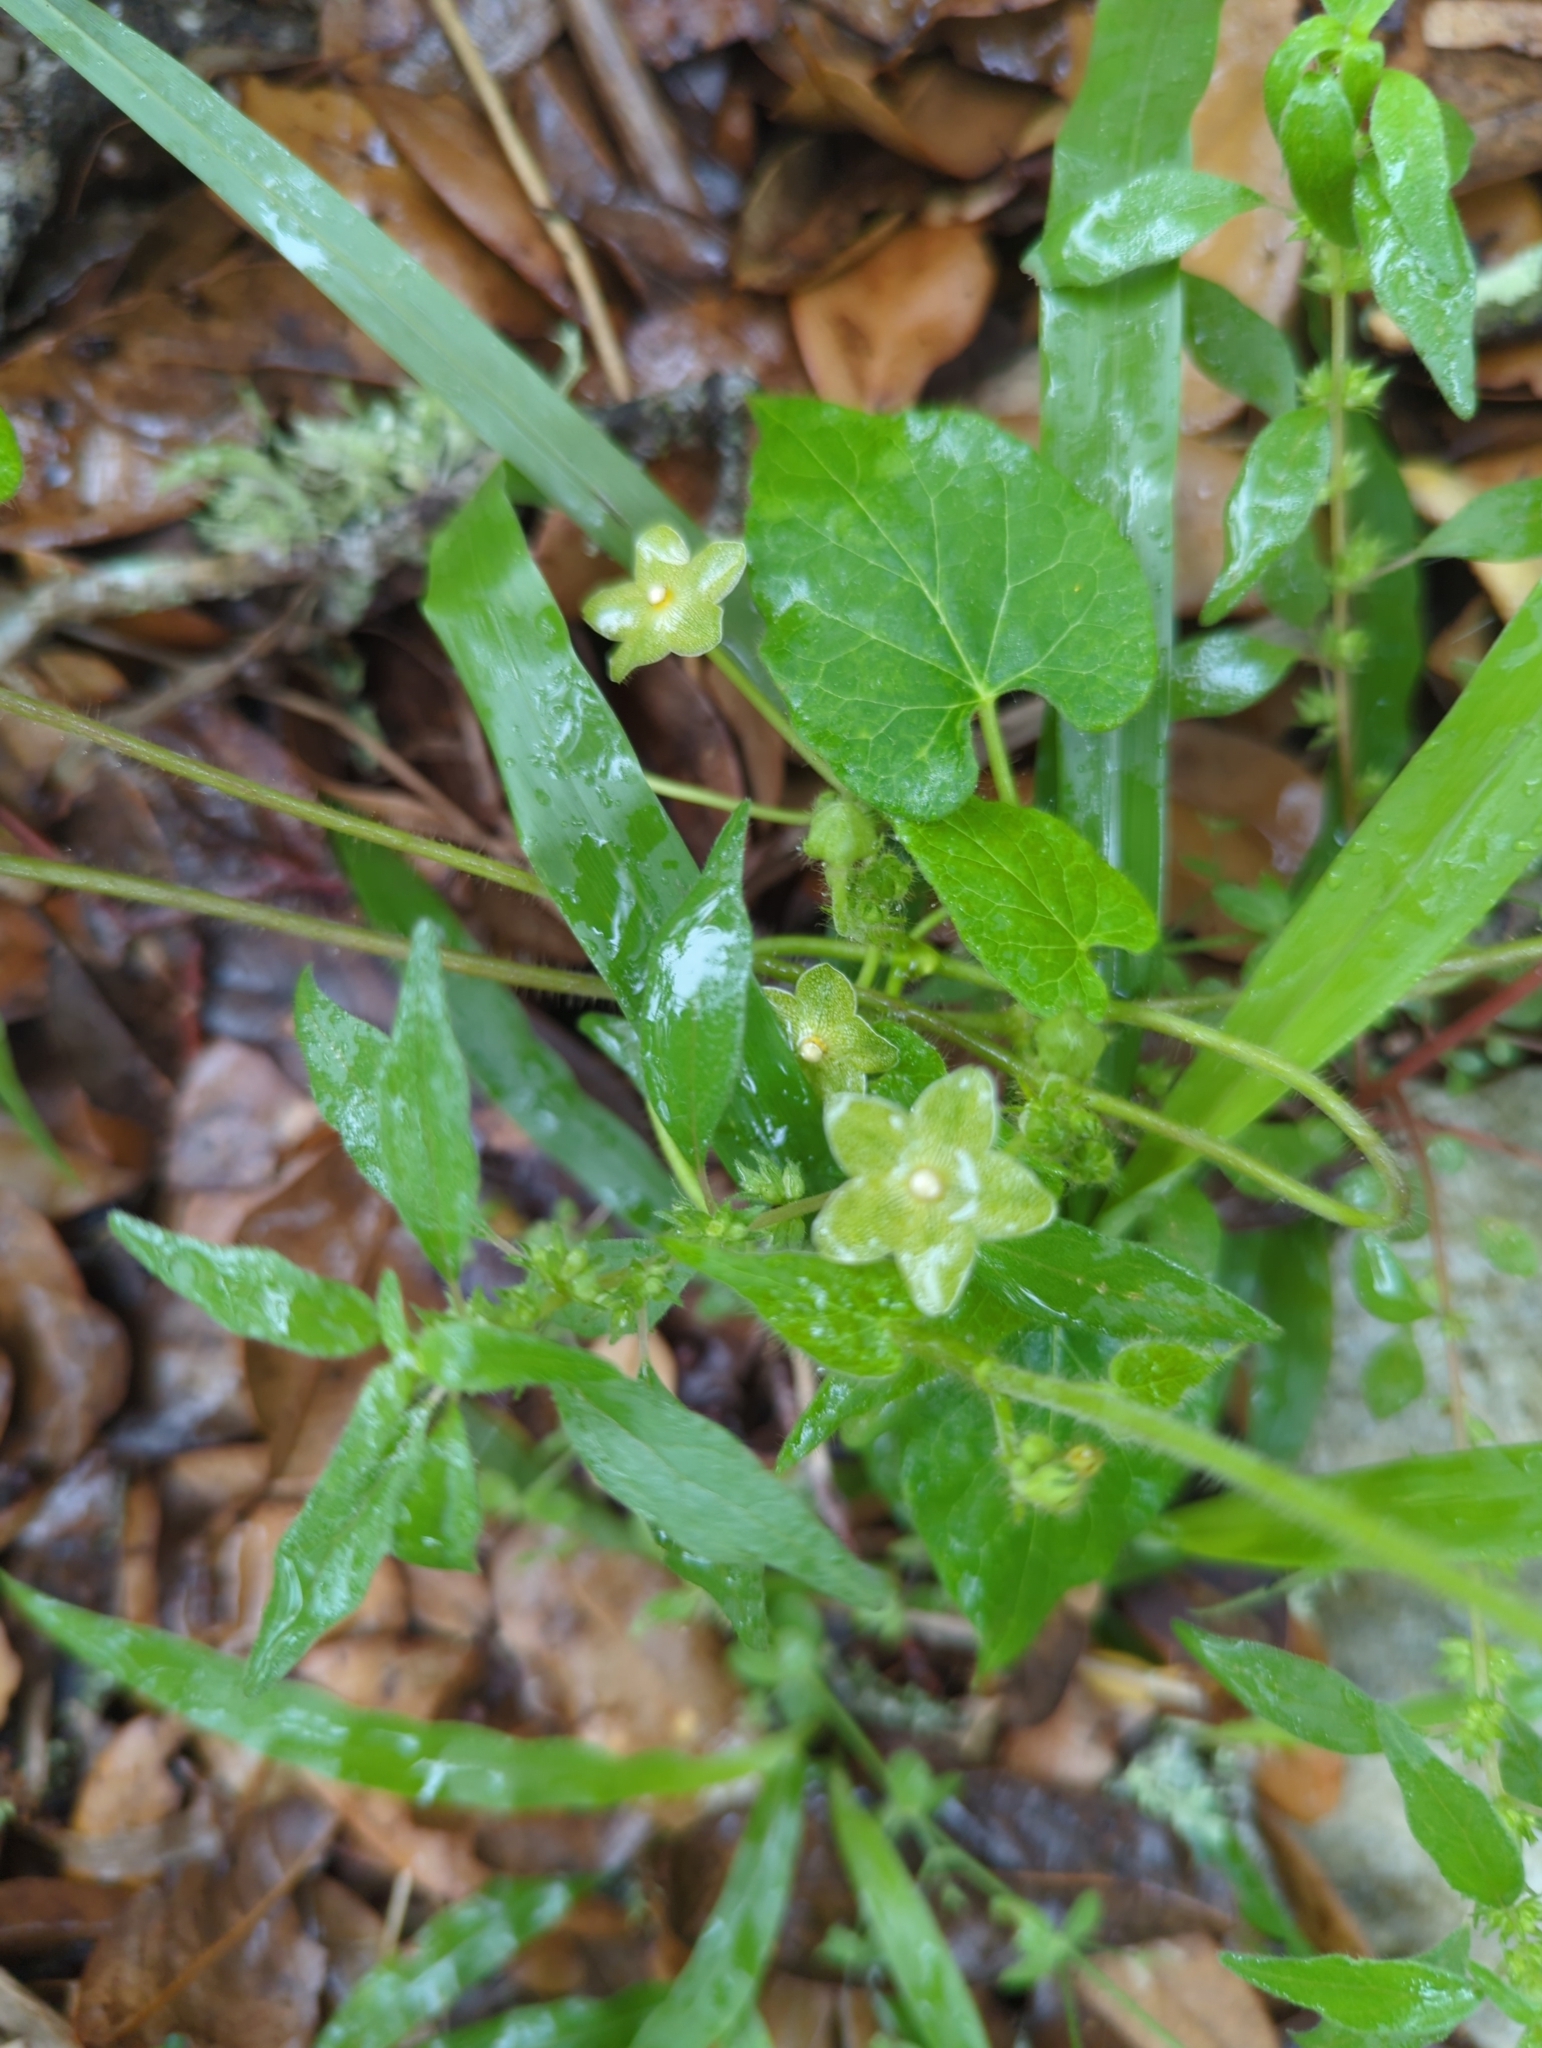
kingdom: Plantae
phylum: Tracheophyta
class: Magnoliopsida
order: Gentianales
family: Apocynaceae
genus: Dictyanthus
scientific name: Dictyanthus reticulatus
